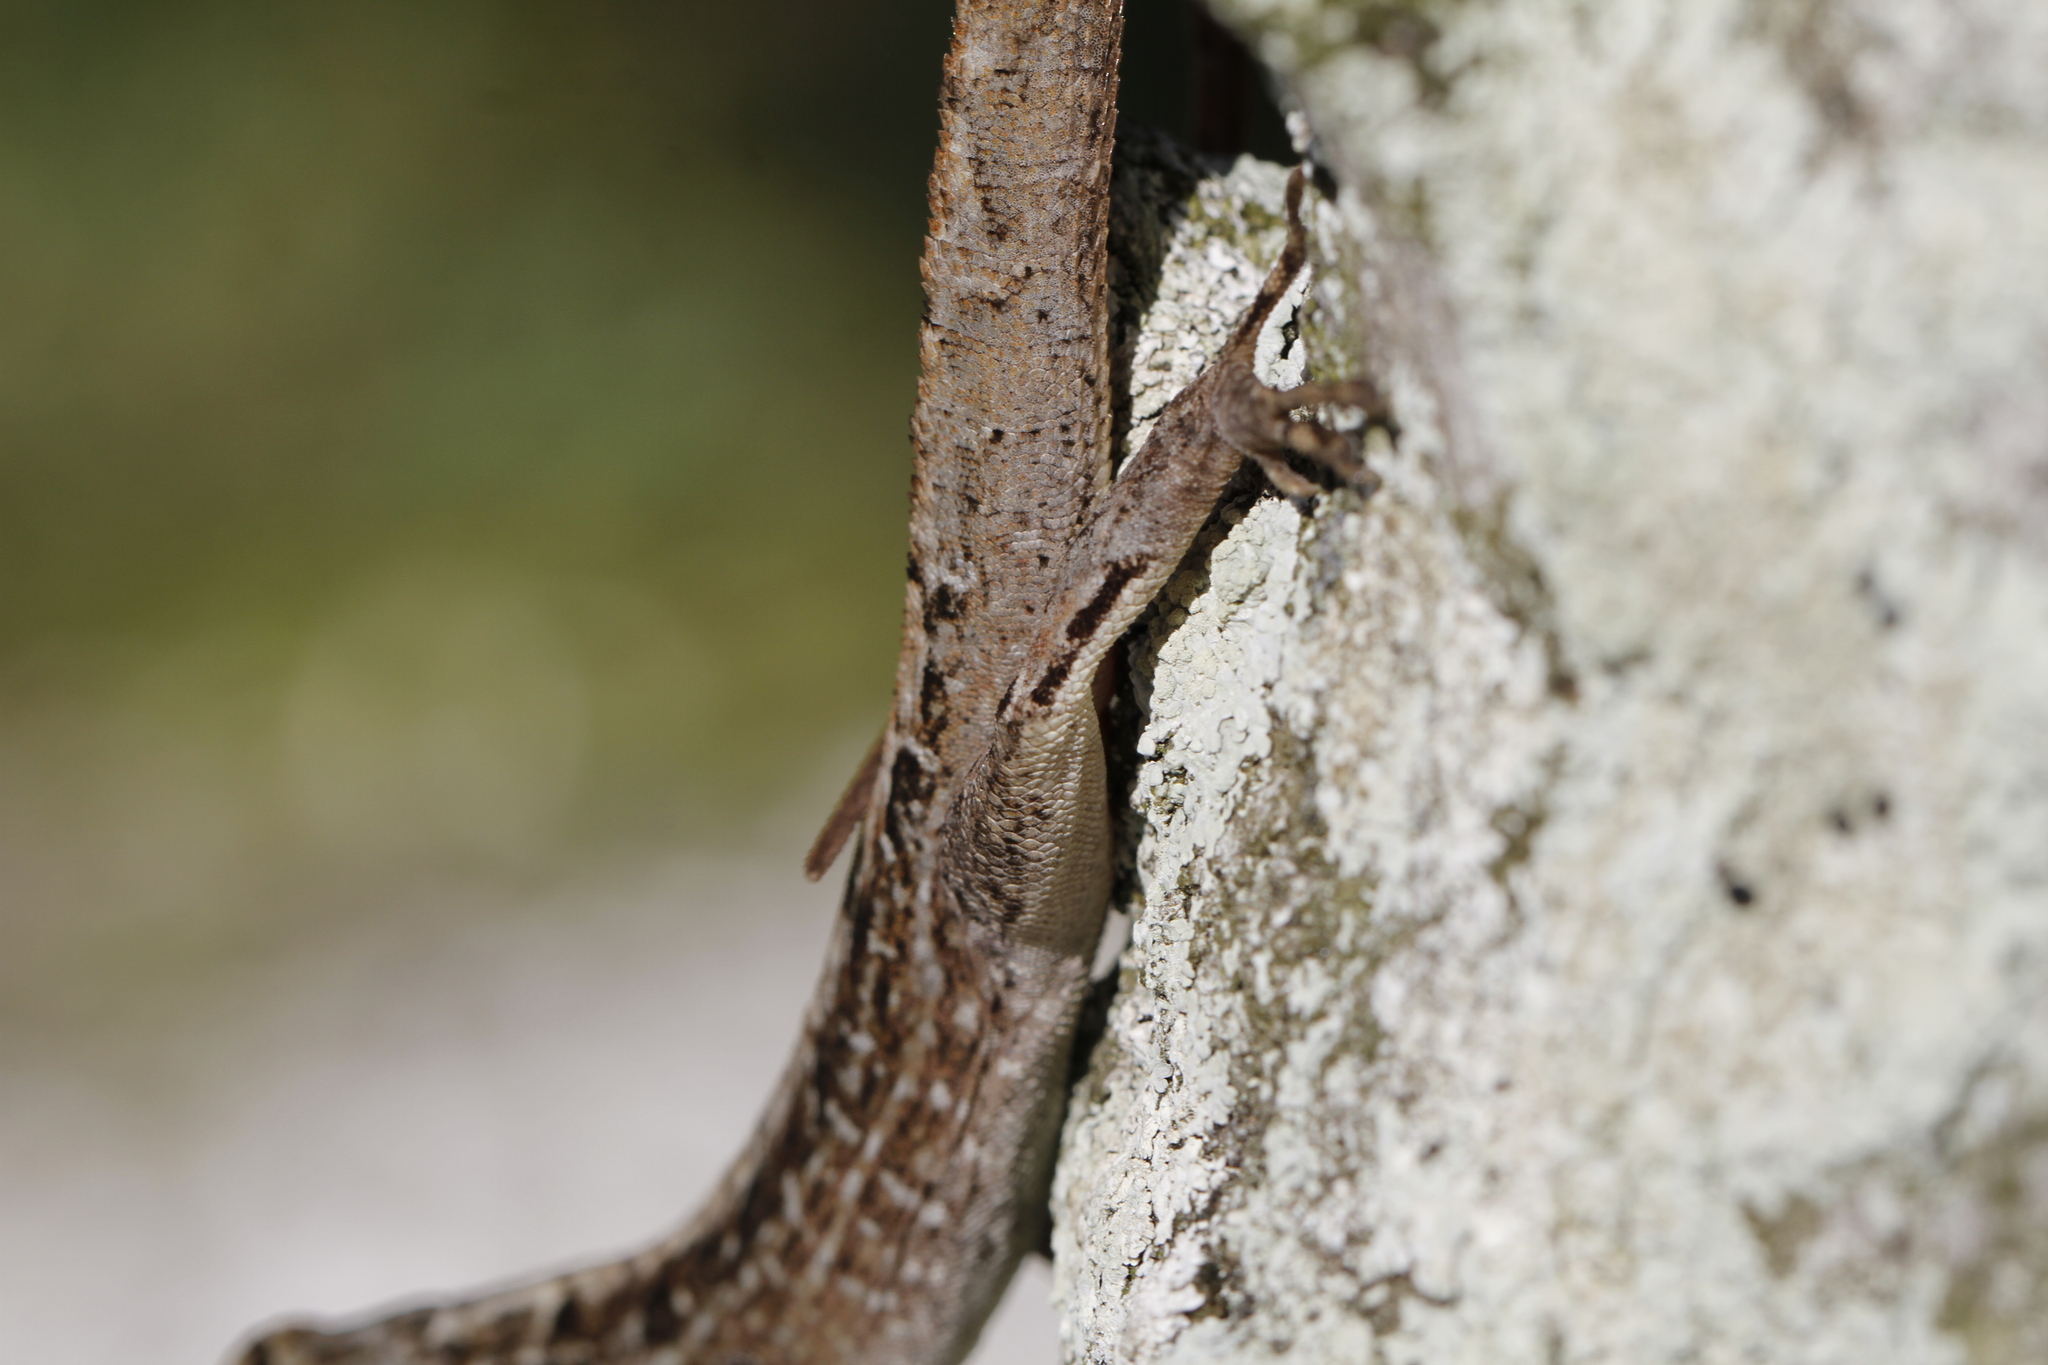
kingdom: Animalia
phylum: Chordata
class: Squamata
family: Dactyloidae
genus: Anolis
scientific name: Anolis sagrei
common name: Brown anole
